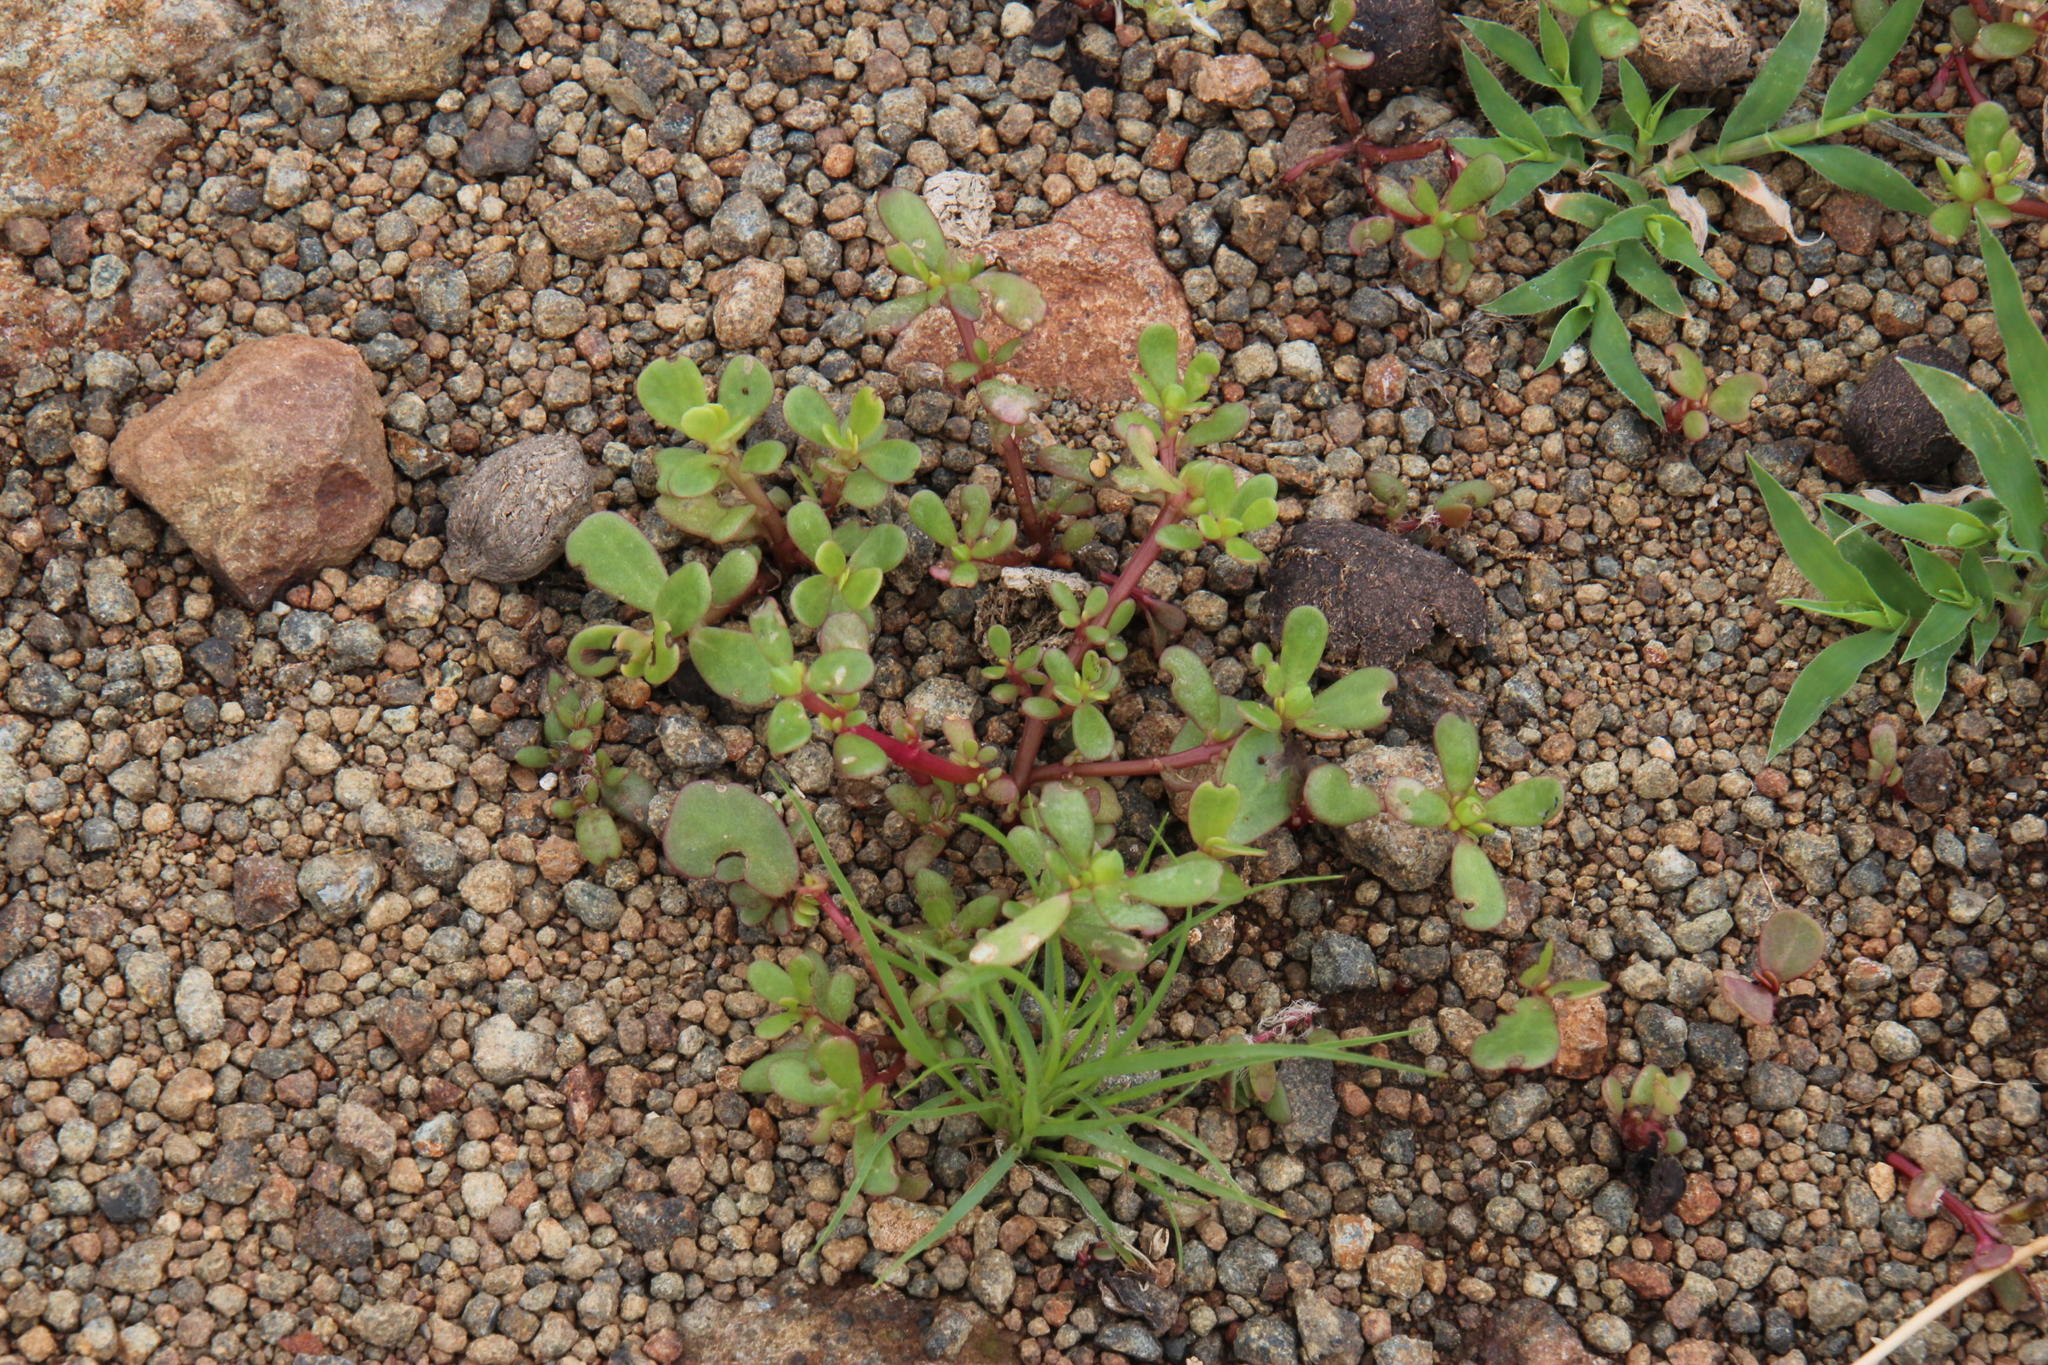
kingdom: Plantae
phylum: Tracheophyta
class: Magnoliopsida
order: Caryophyllales
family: Portulacaceae
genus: Portulaca
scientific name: Portulaca oleracea
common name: Common purslane
